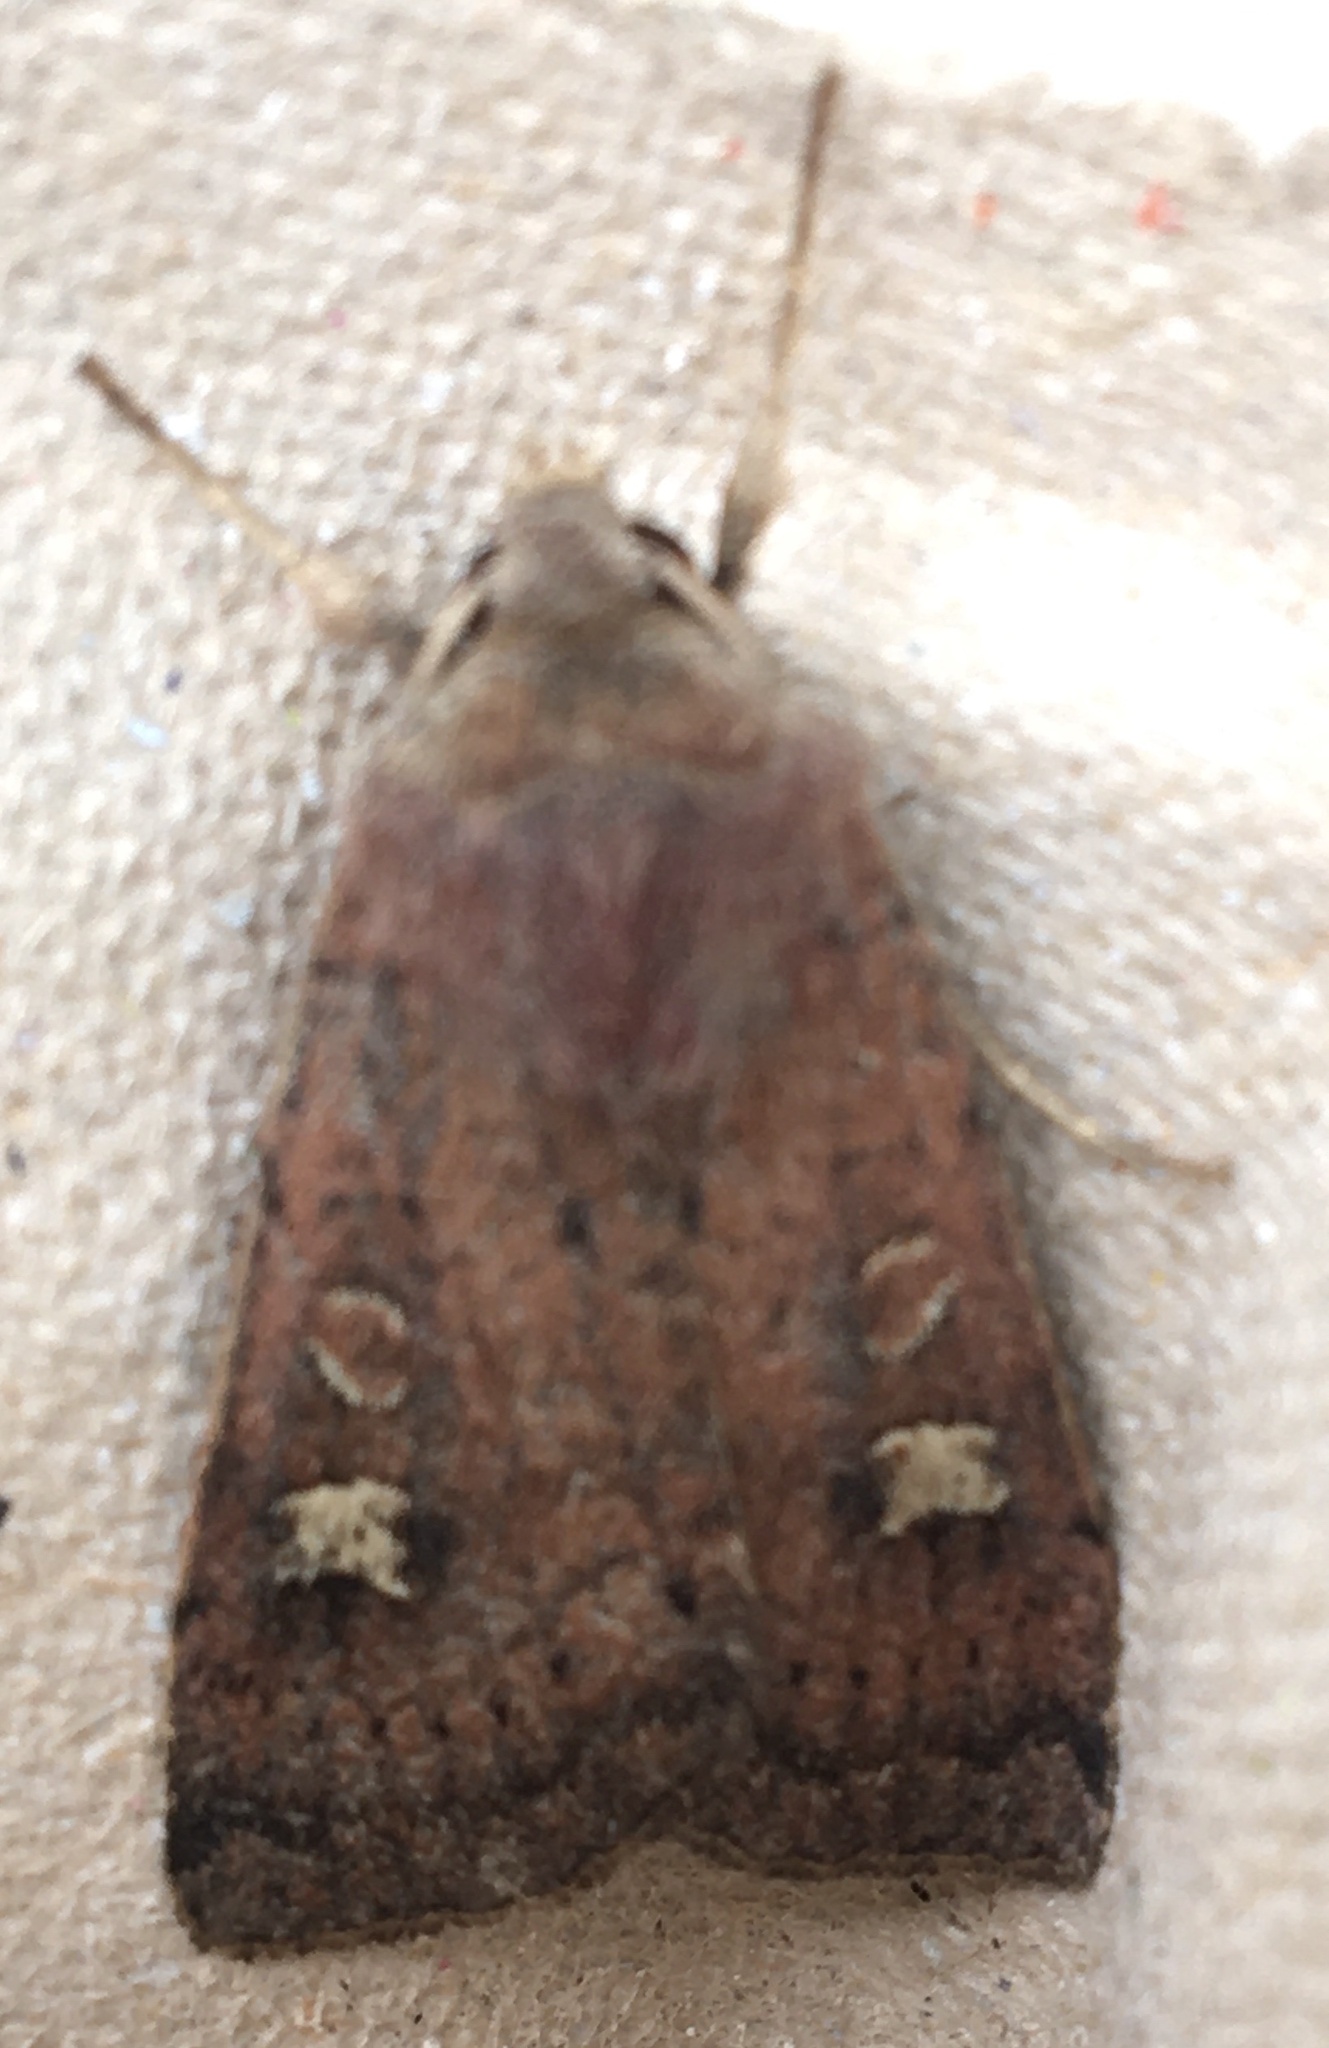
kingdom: Animalia
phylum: Arthropoda
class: Insecta
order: Lepidoptera
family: Noctuidae
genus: Xestia
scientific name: Xestia xanthographa
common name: Square-spot rustic
